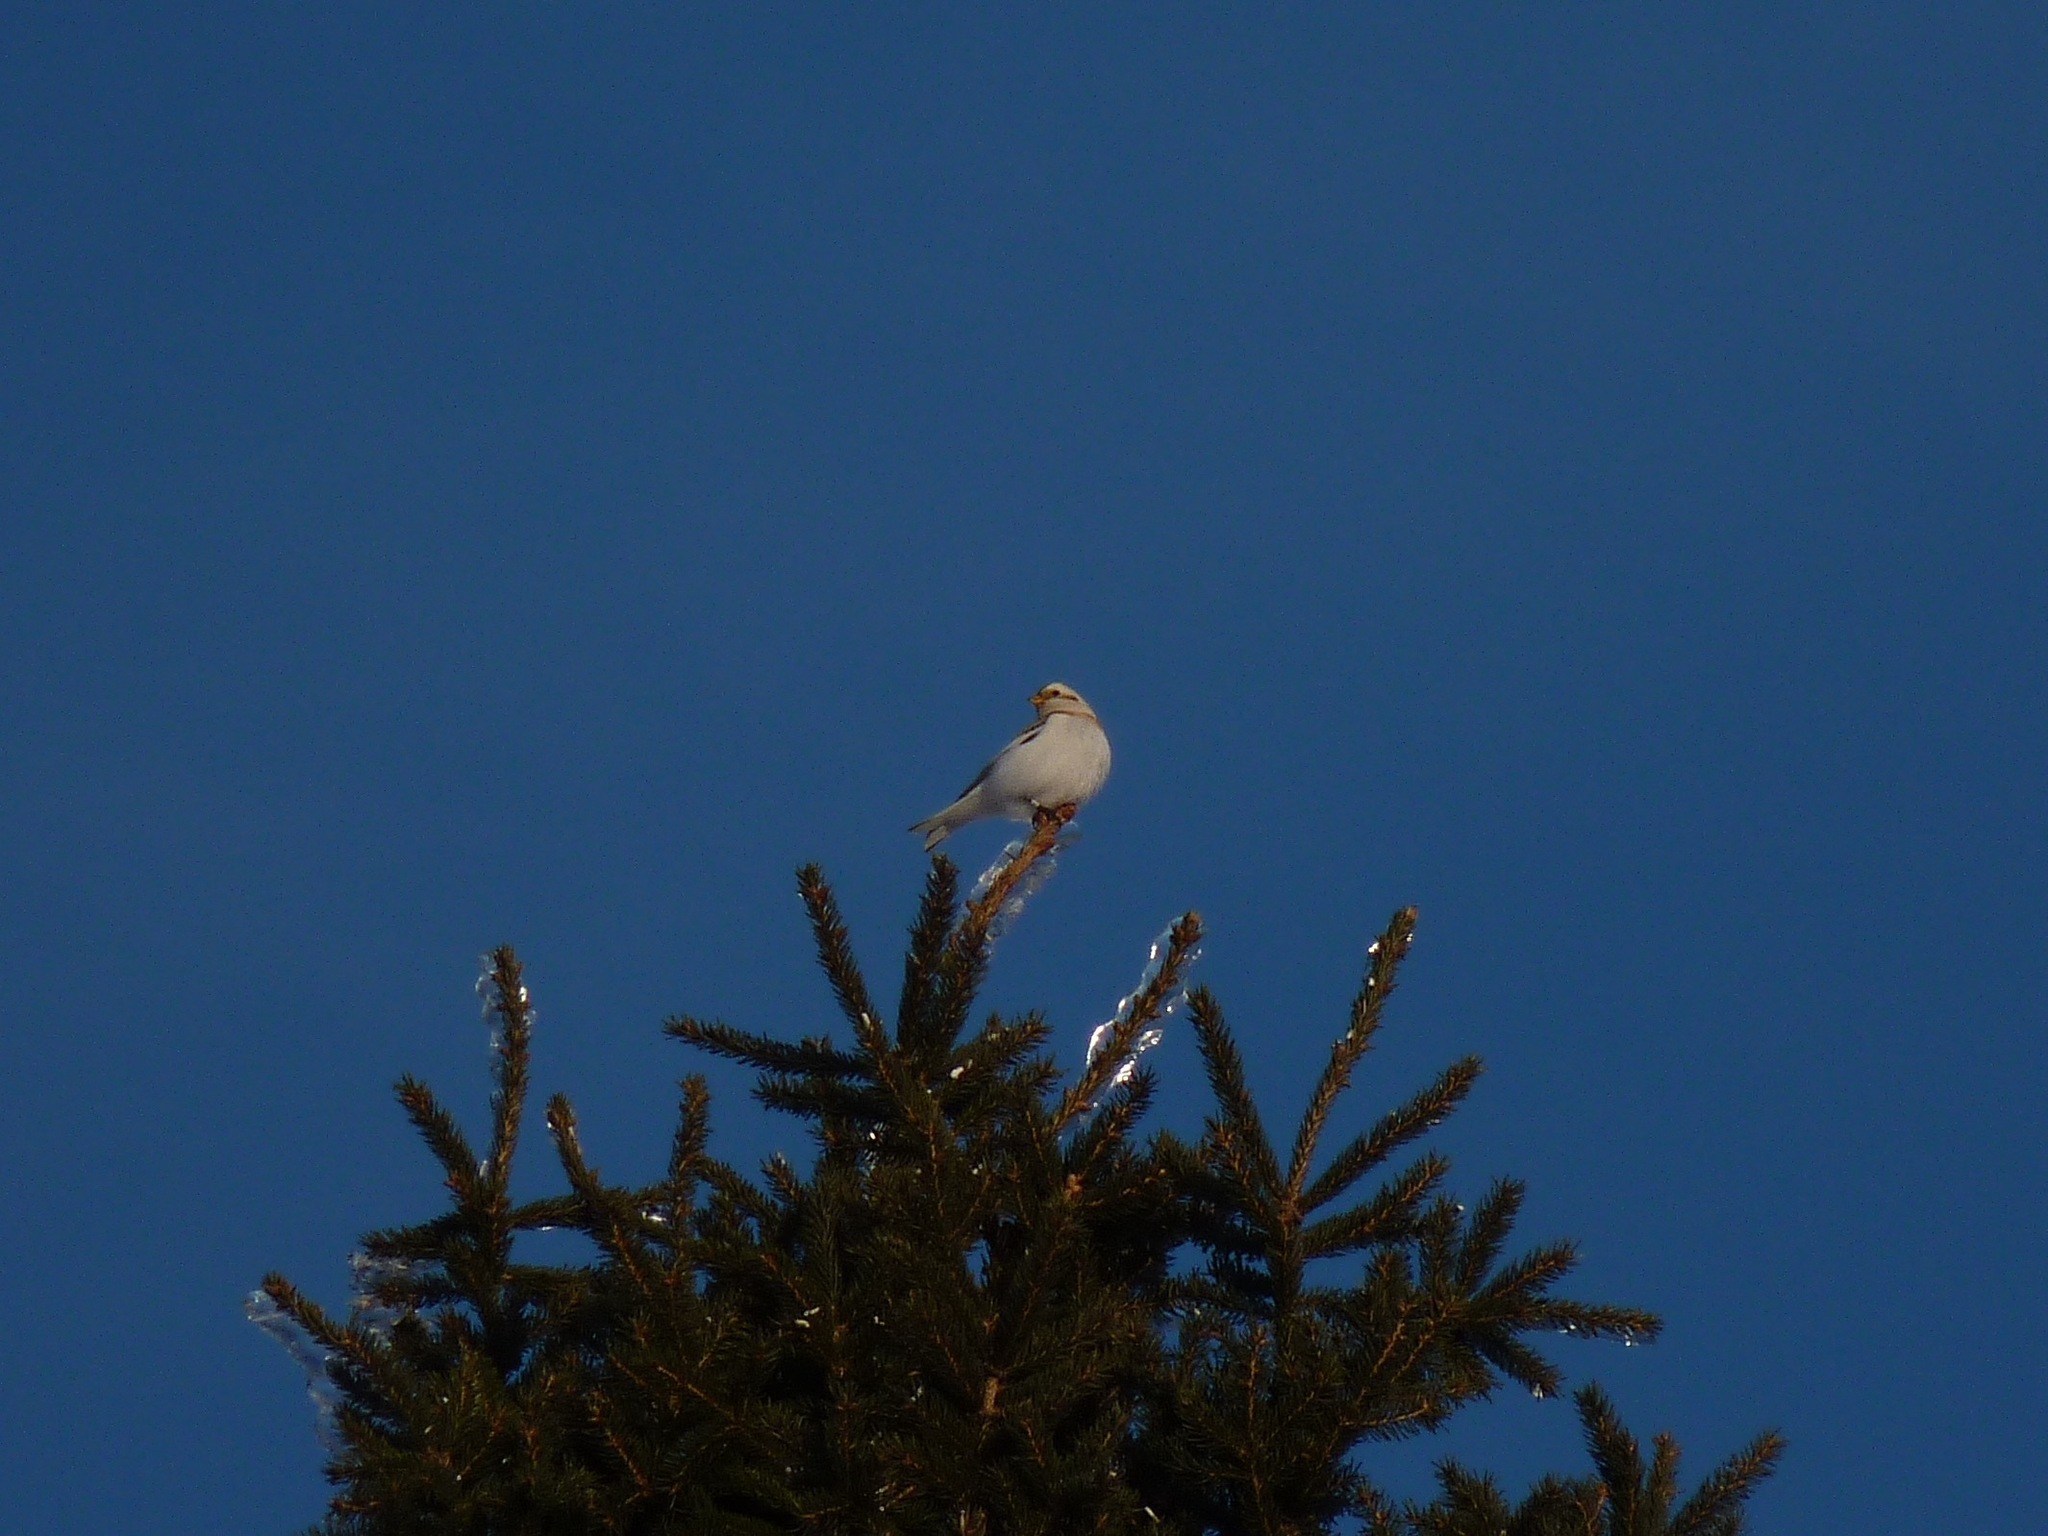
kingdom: Animalia
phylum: Chordata
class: Aves
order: Passeriformes
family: Calcariidae
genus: Plectrophenax
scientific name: Plectrophenax nivalis
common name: Snow bunting
